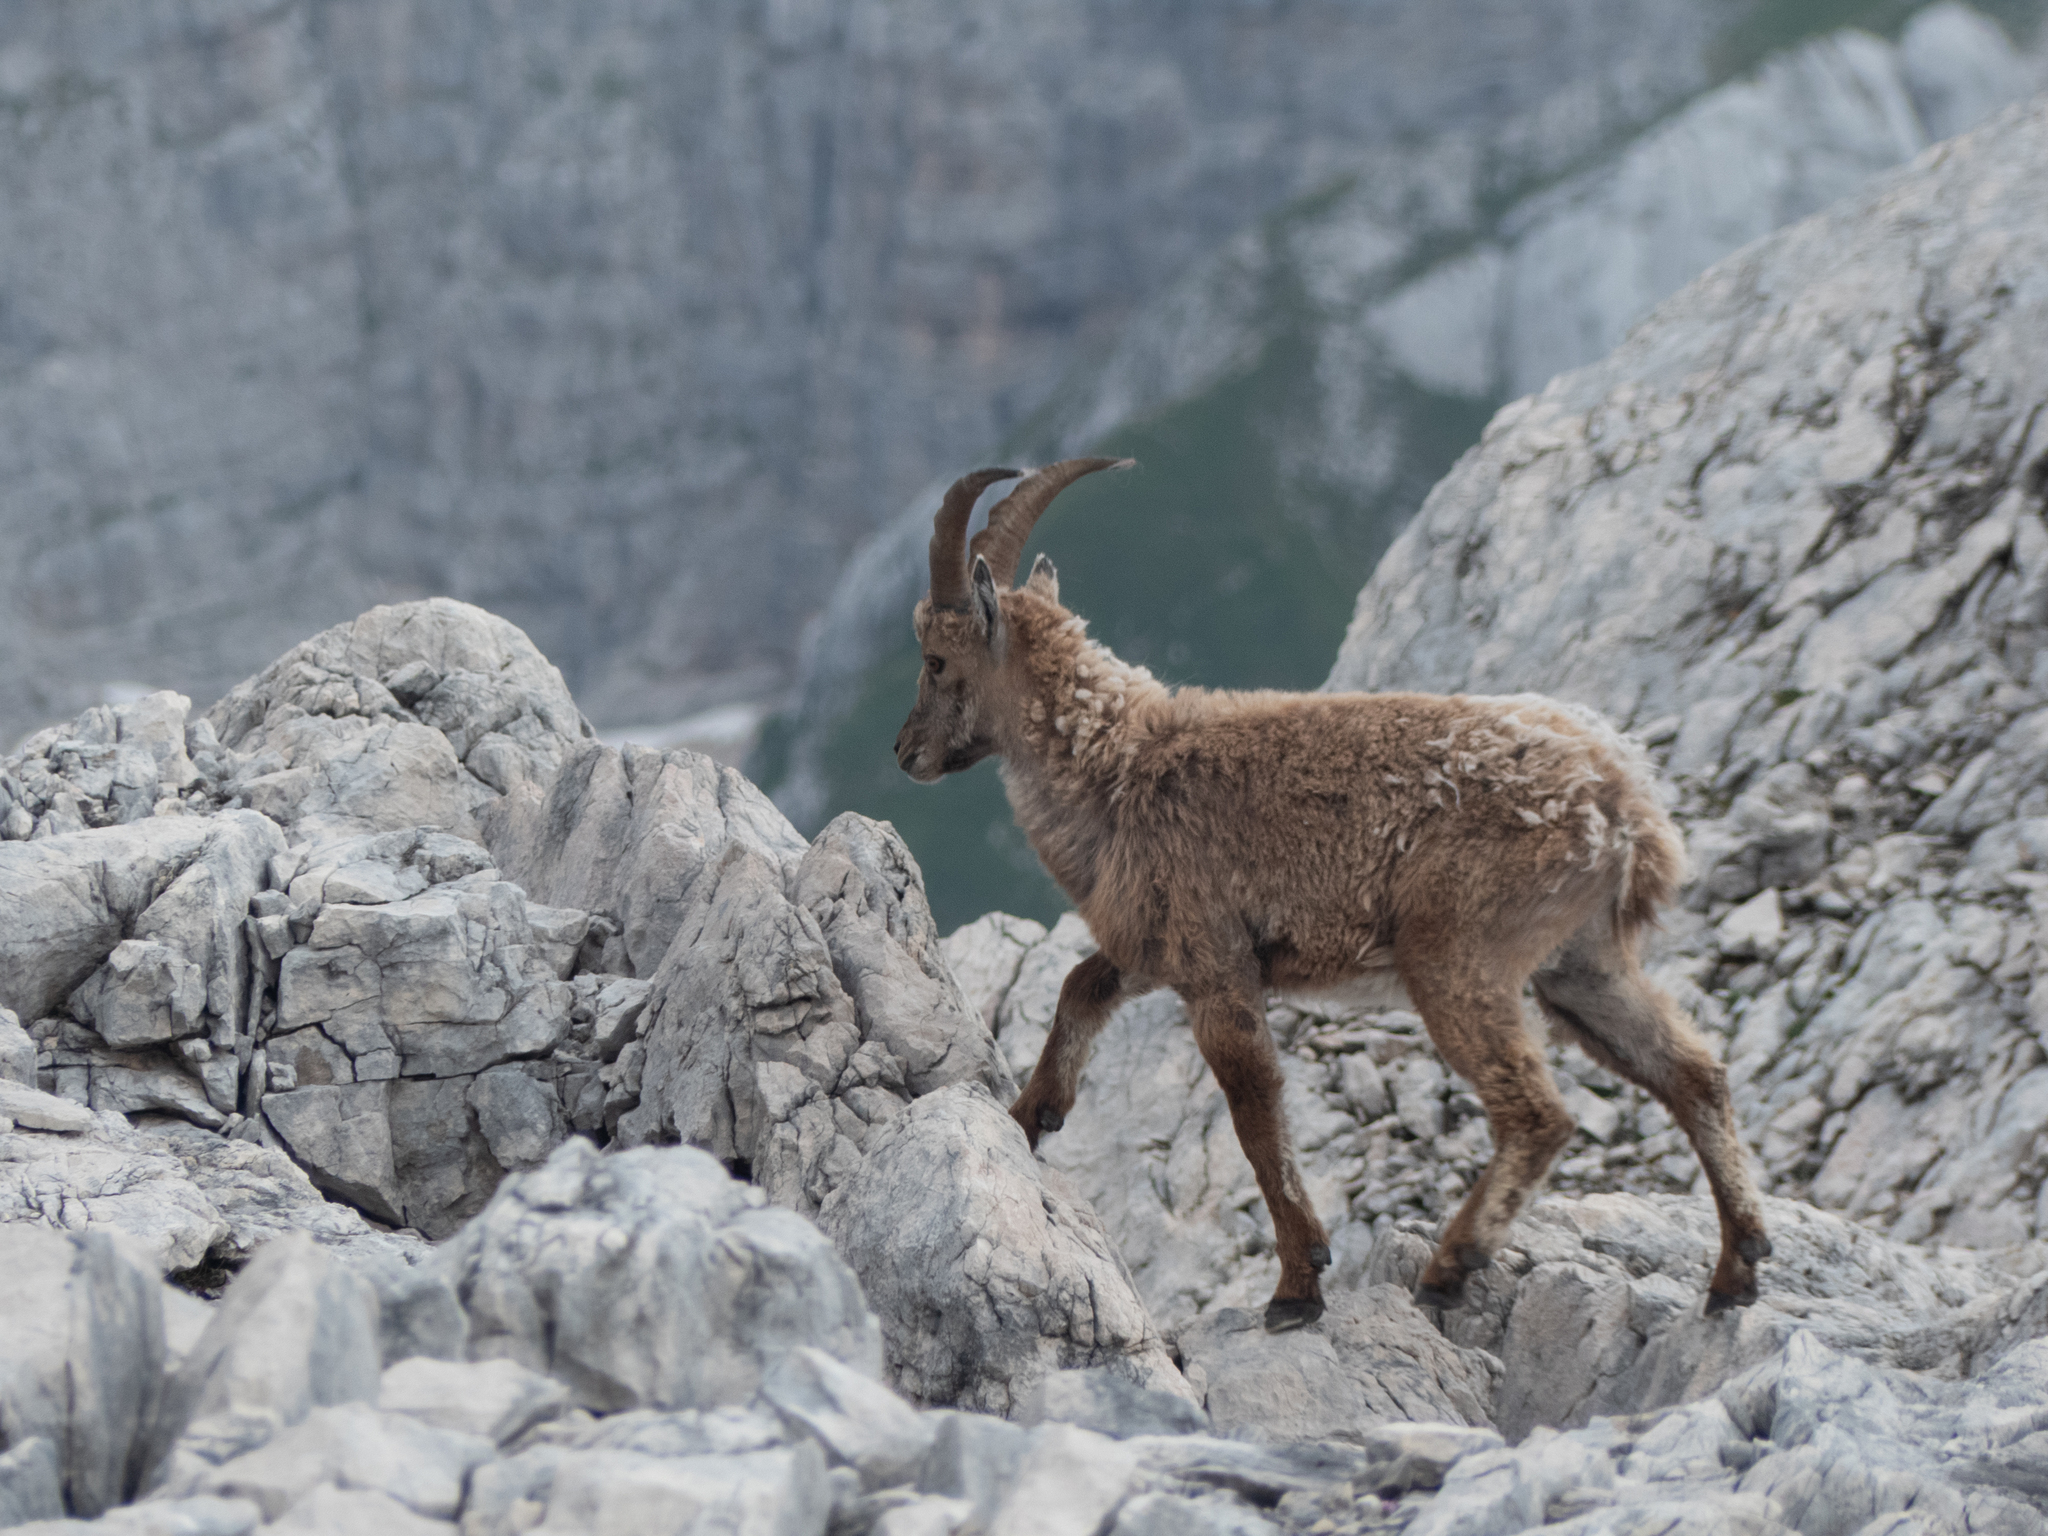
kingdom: Animalia
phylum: Chordata
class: Mammalia
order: Artiodactyla
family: Bovidae
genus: Capra
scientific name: Capra ibex
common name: Alpine ibex
